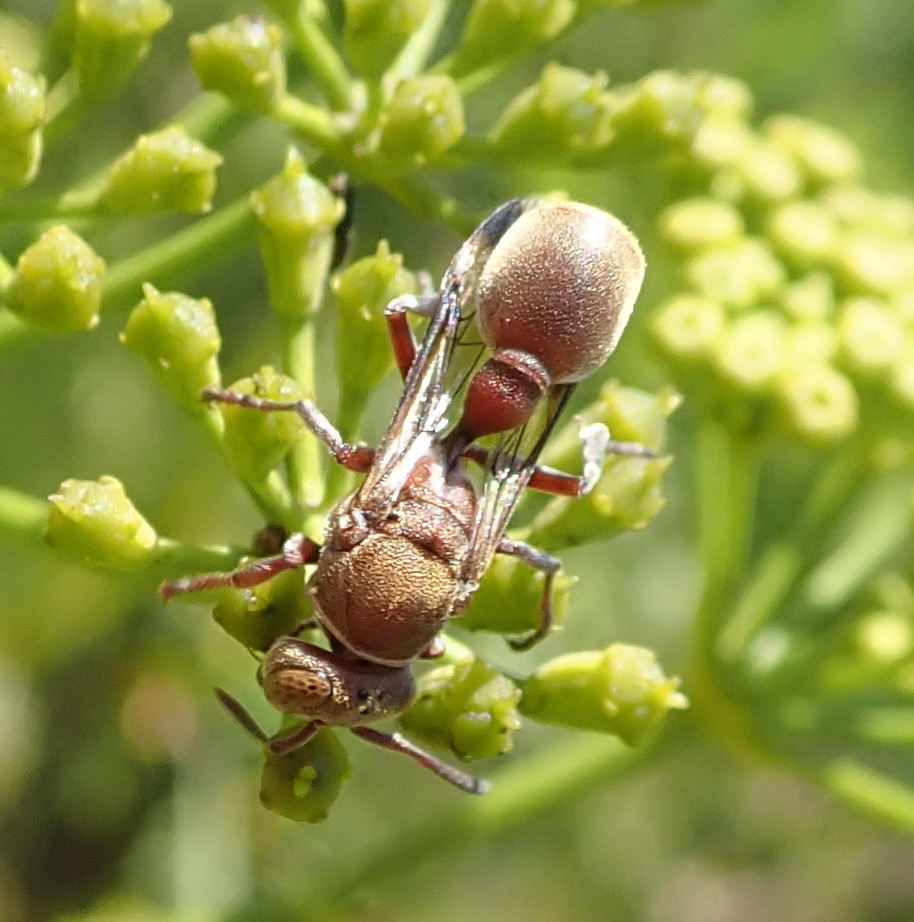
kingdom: Animalia
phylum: Arthropoda
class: Insecta
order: Hymenoptera
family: Vespidae
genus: Ropalidia
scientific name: Ropalidia distigma
